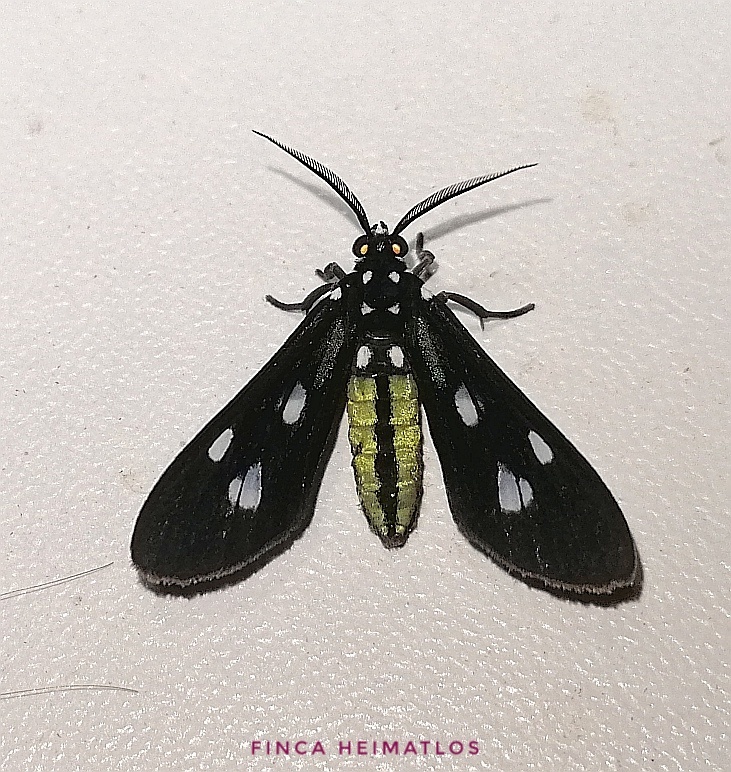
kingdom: Animalia
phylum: Arthropoda
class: Insecta
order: Lepidoptera
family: Erebidae
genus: Leucopleura
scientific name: Leucopleura viridis
